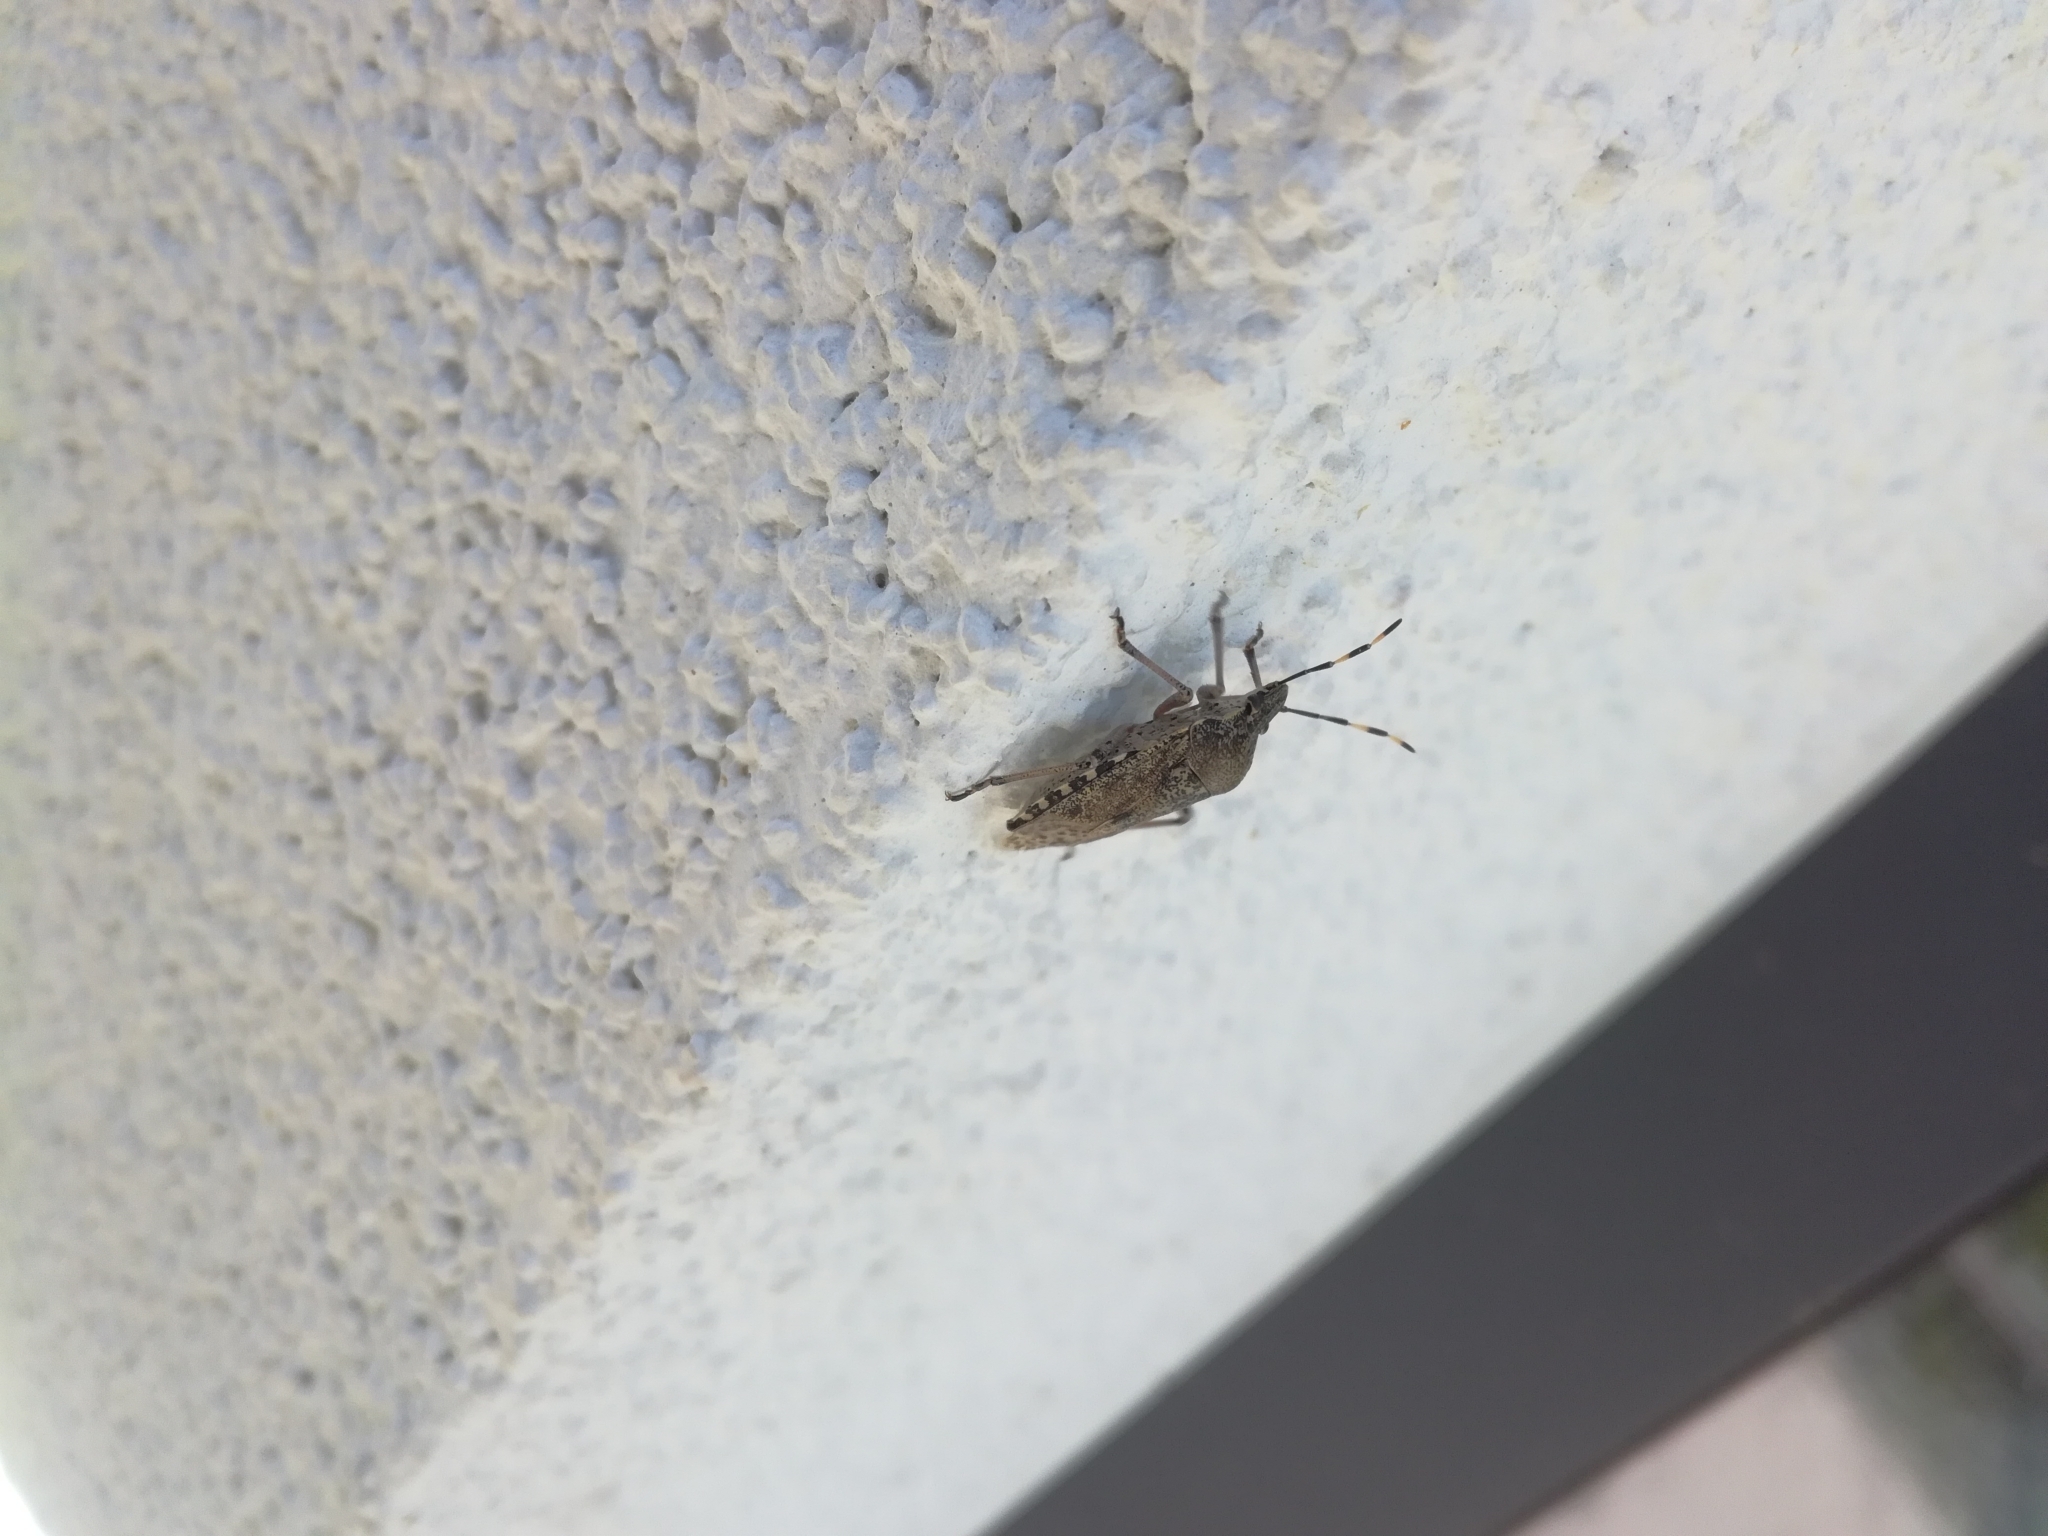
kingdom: Animalia
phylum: Arthropoda
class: Insecta
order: Hemiptera
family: Pentatomidae
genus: Rhaphigaster
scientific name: Rhaphigaster nebulosa
